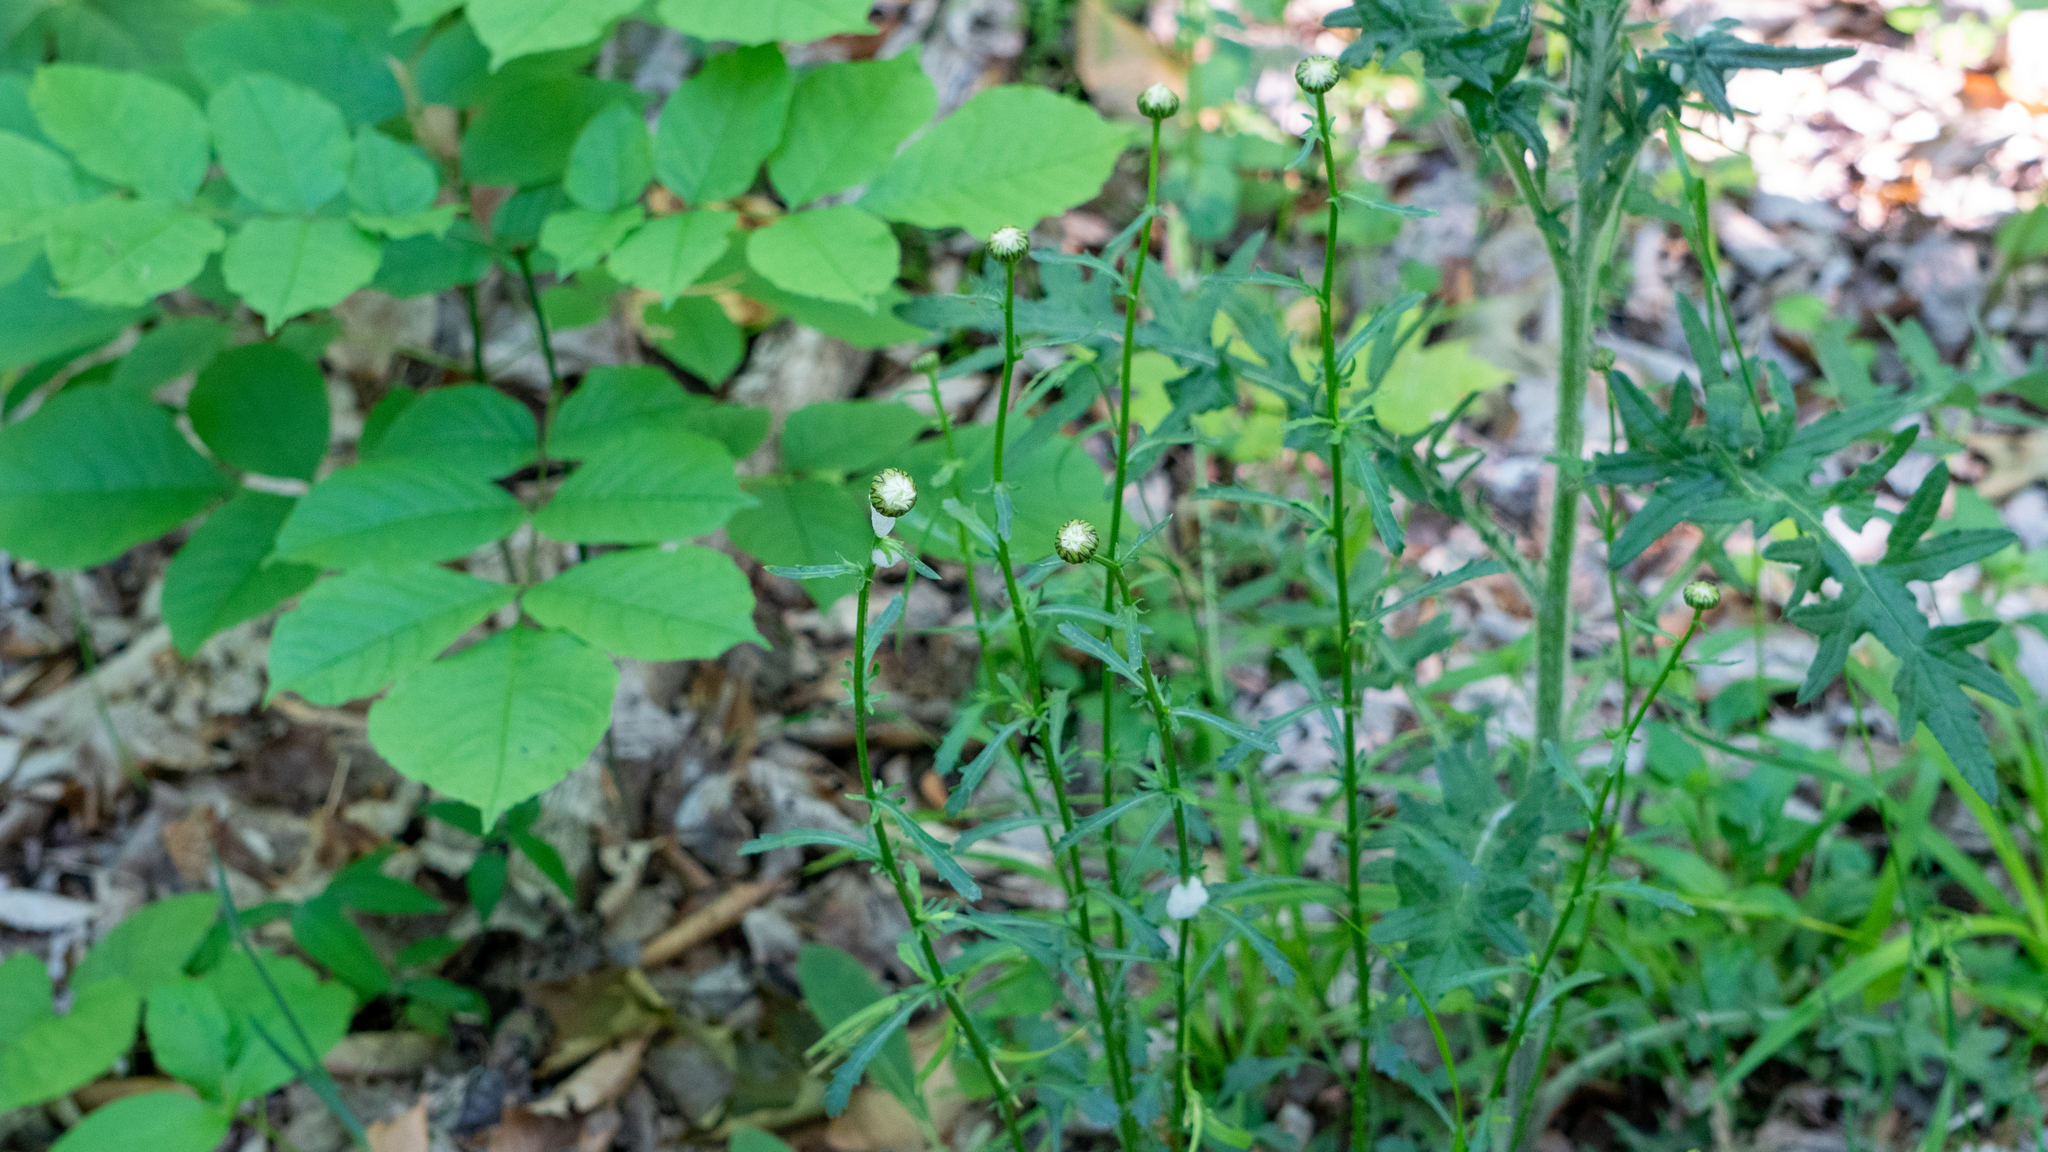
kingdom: Plantae
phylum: Tracheophyta
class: Magnoliopsida
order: Asterales
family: Asteraceae
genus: Leucanthemum
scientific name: Leucanthemum vulgare
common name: Oxeye daisy
